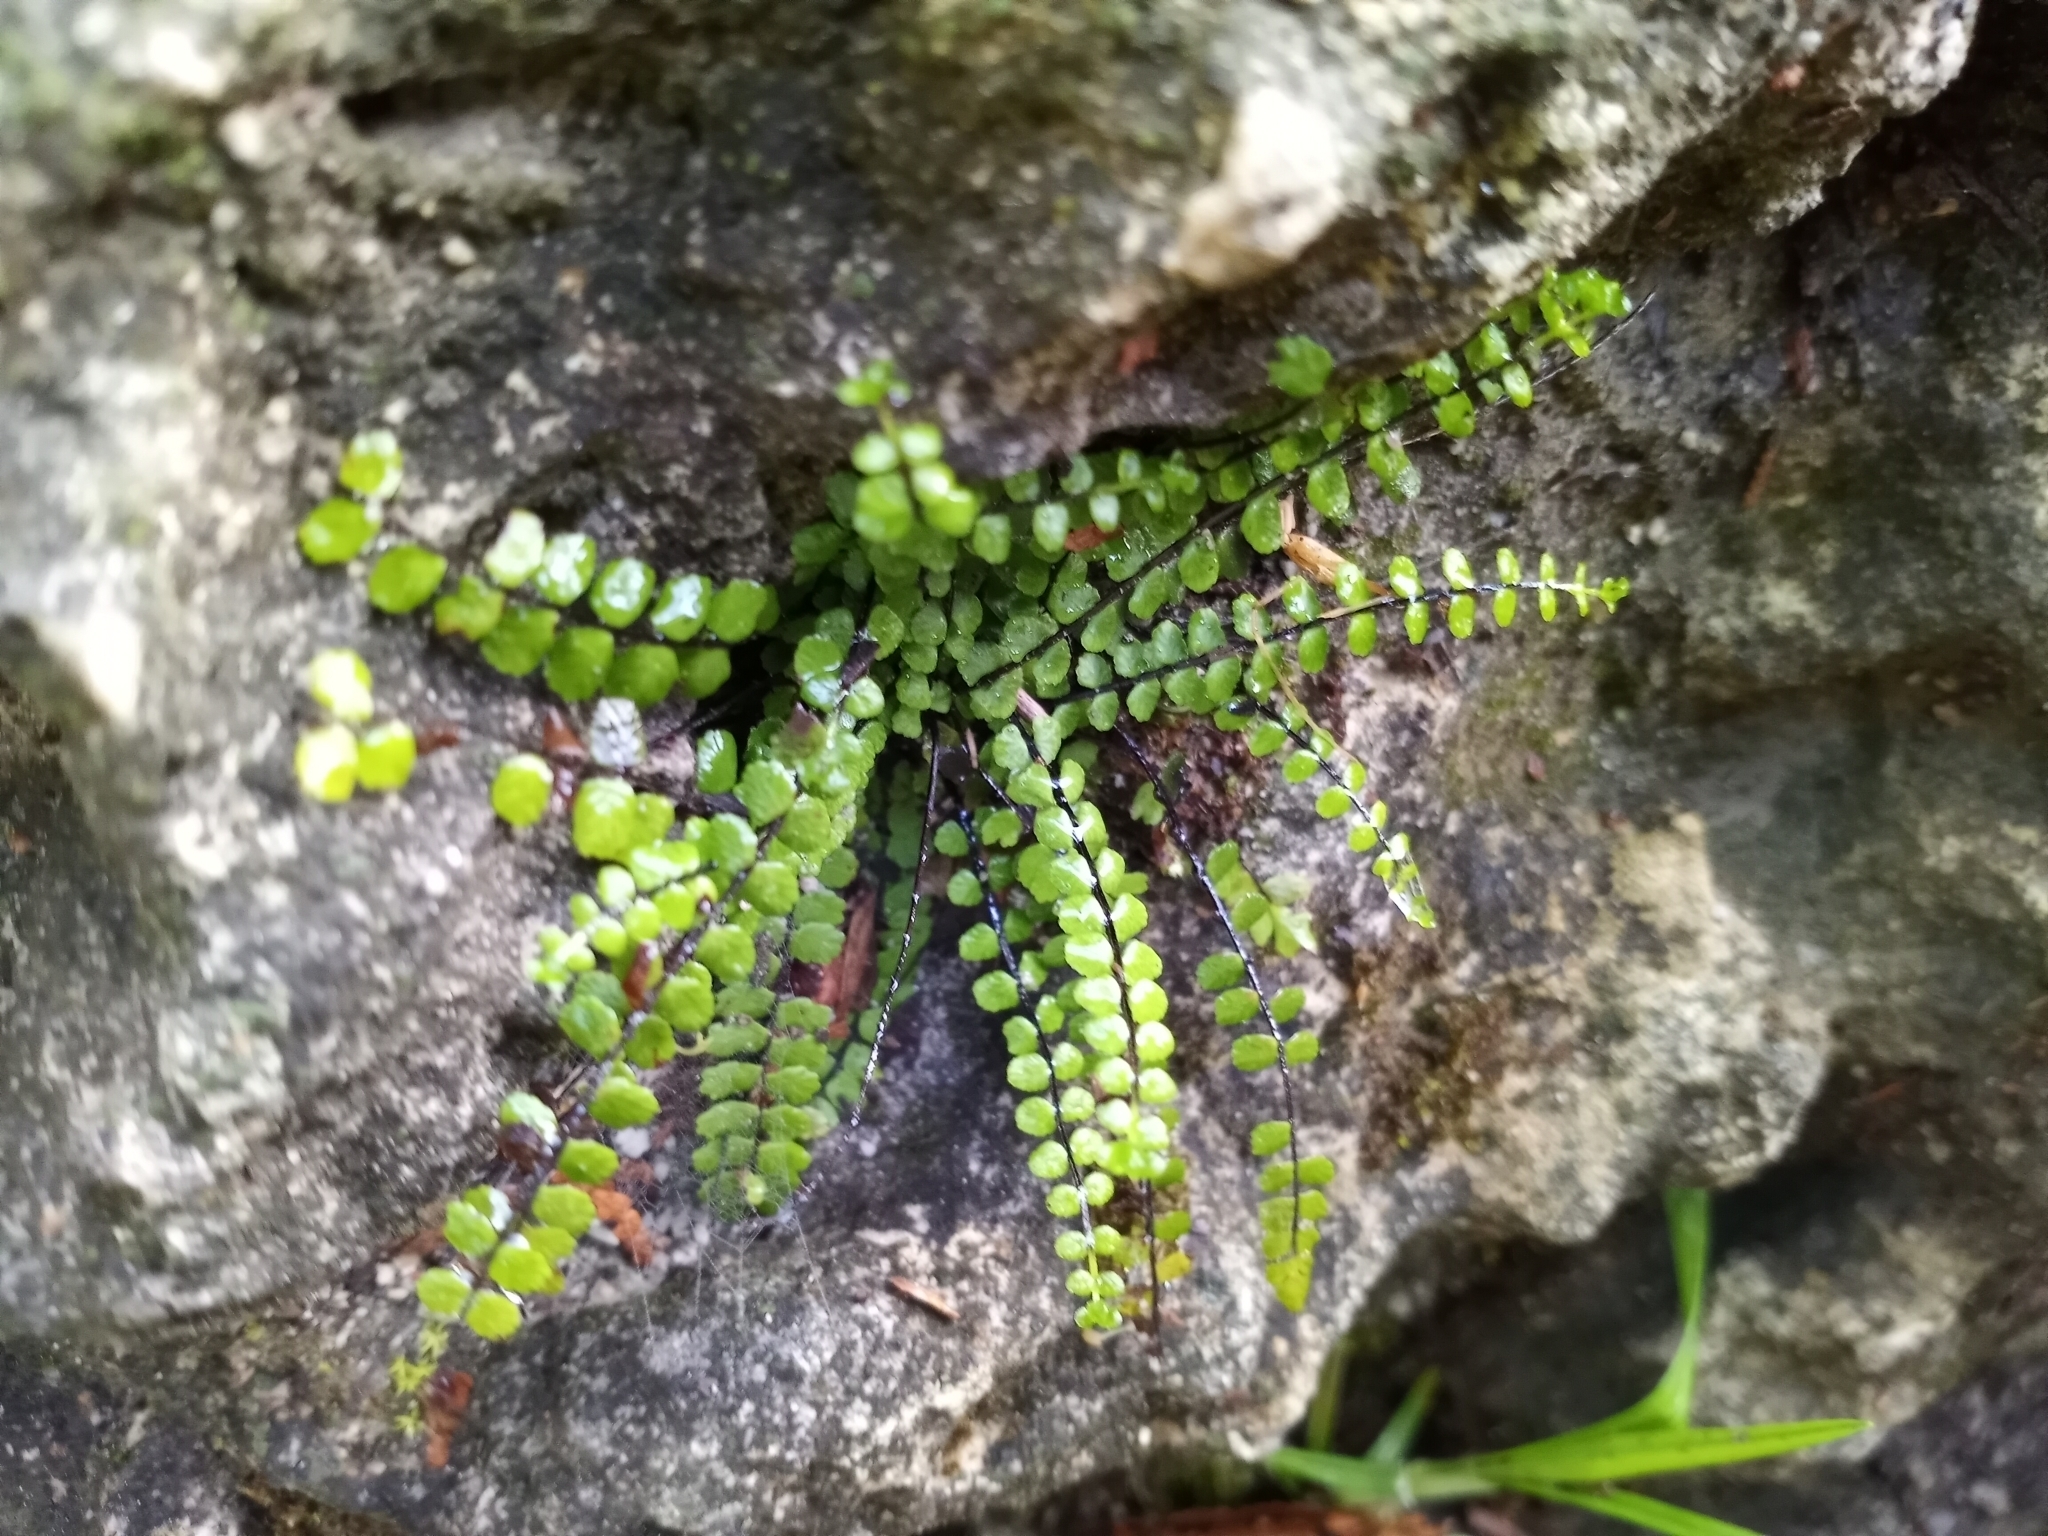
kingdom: Plantae
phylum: Tracheophyta
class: Polypodiopsida
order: Polypodiales
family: Aspleniaceae
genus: Asplenium
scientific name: Asplenium trichomanes
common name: Maidenhair spleenwort
